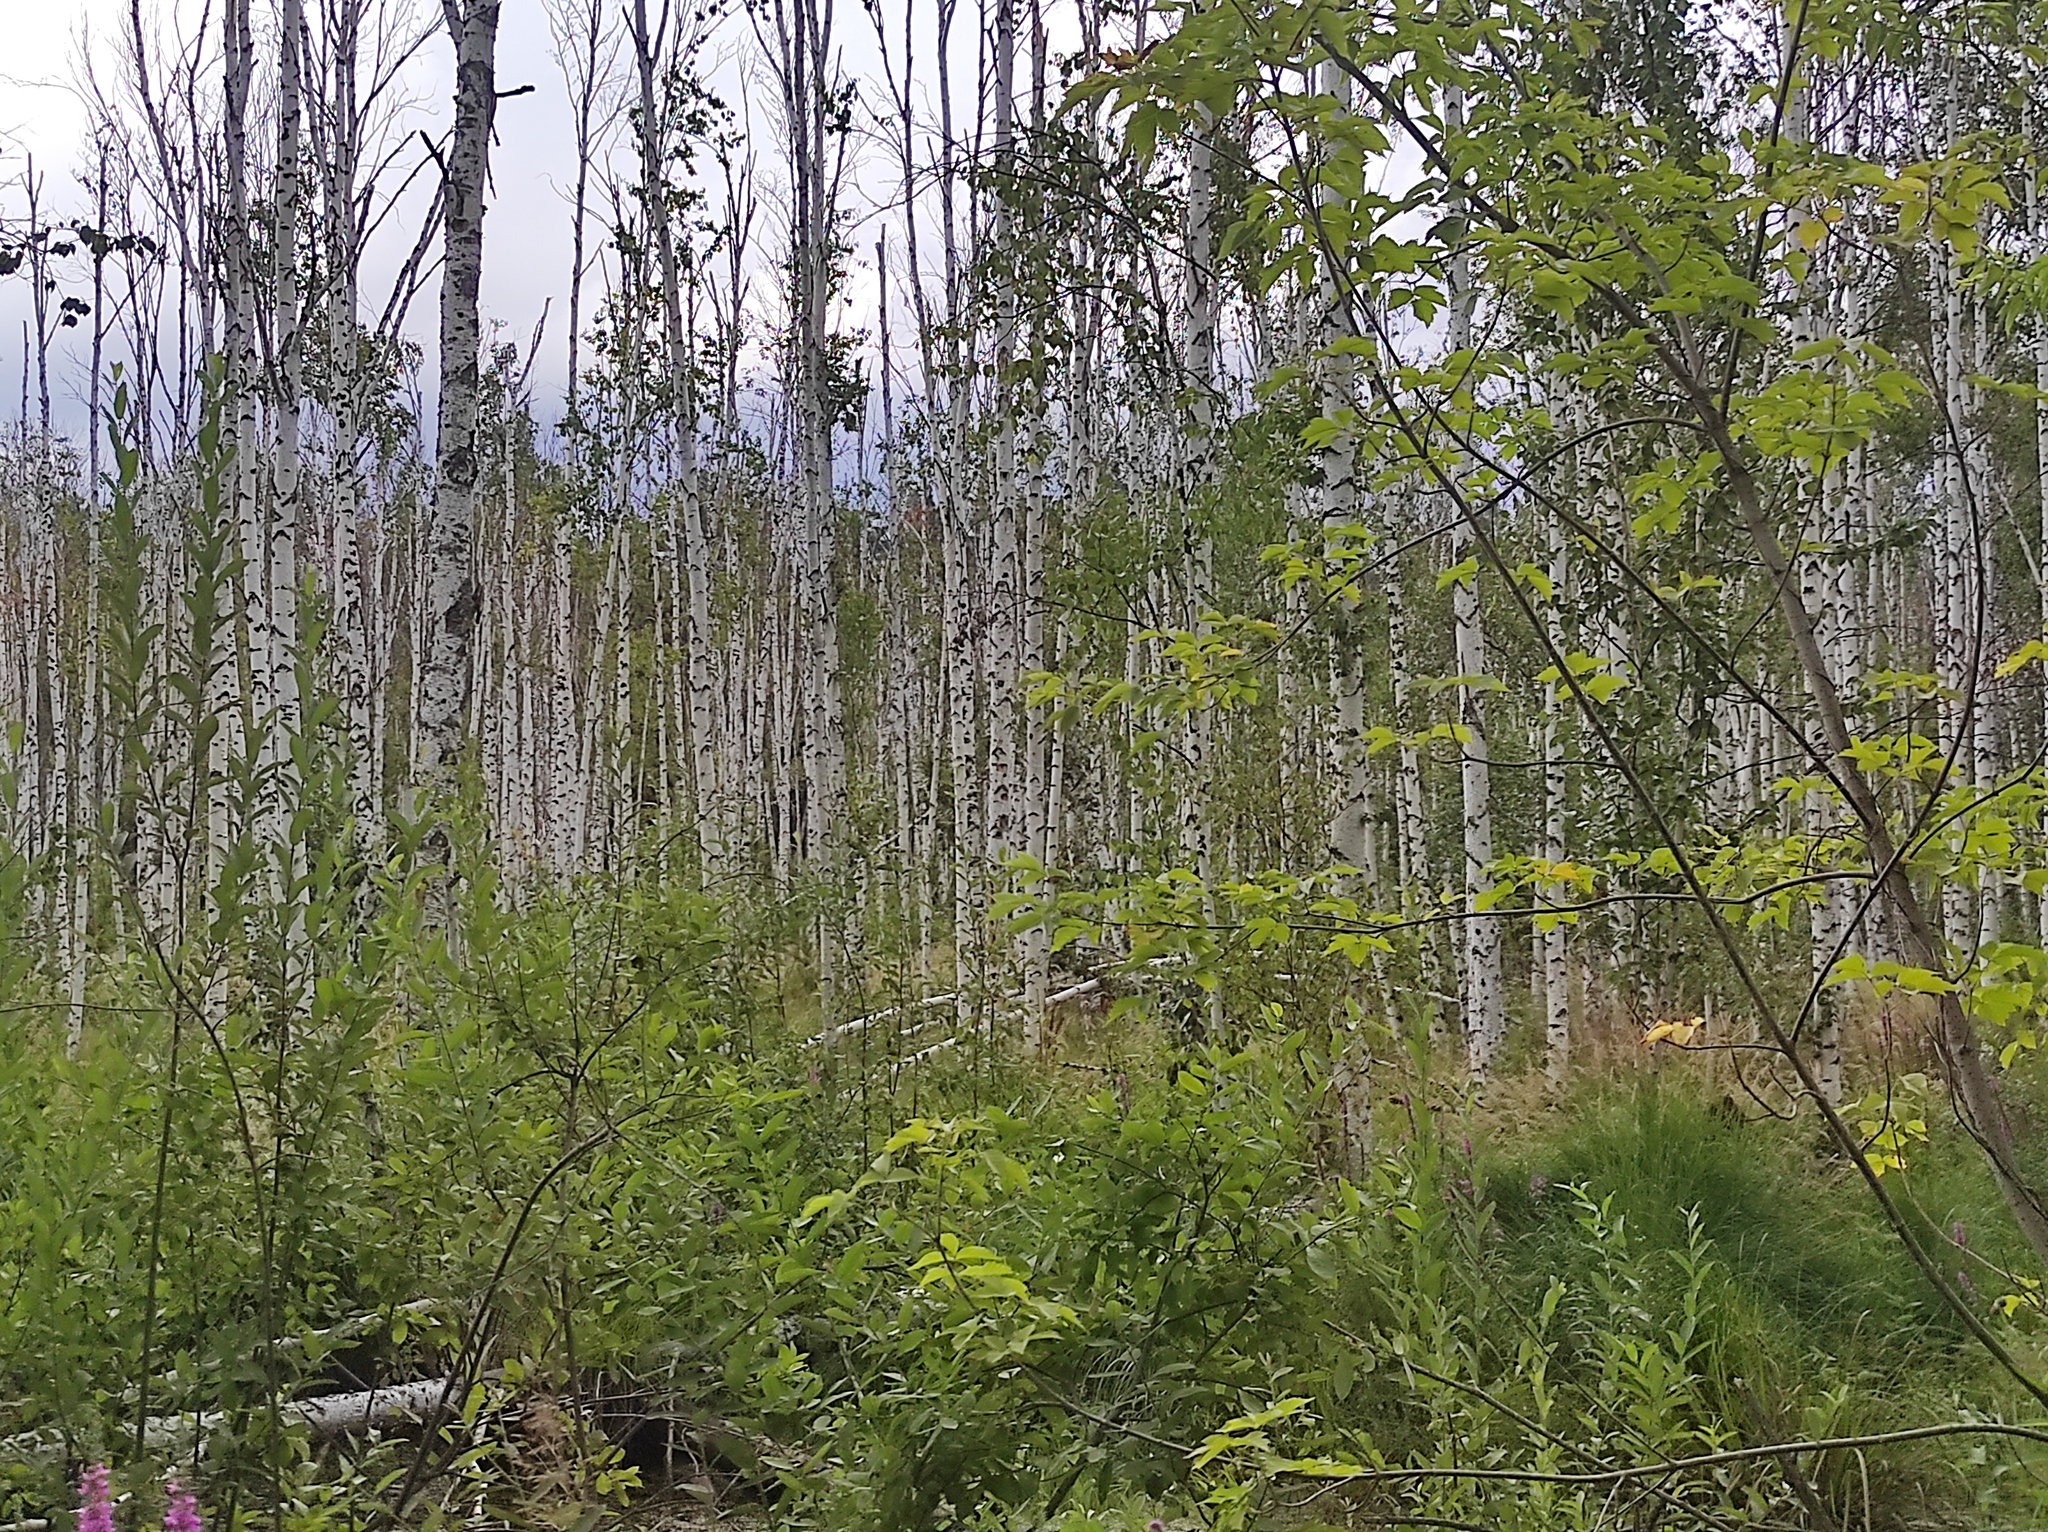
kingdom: Plantae
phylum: Tracheophyta
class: Magnoliopsida
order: Fagales
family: Betulaceae
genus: Betula
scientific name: Betula pubescens
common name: Downy birch
